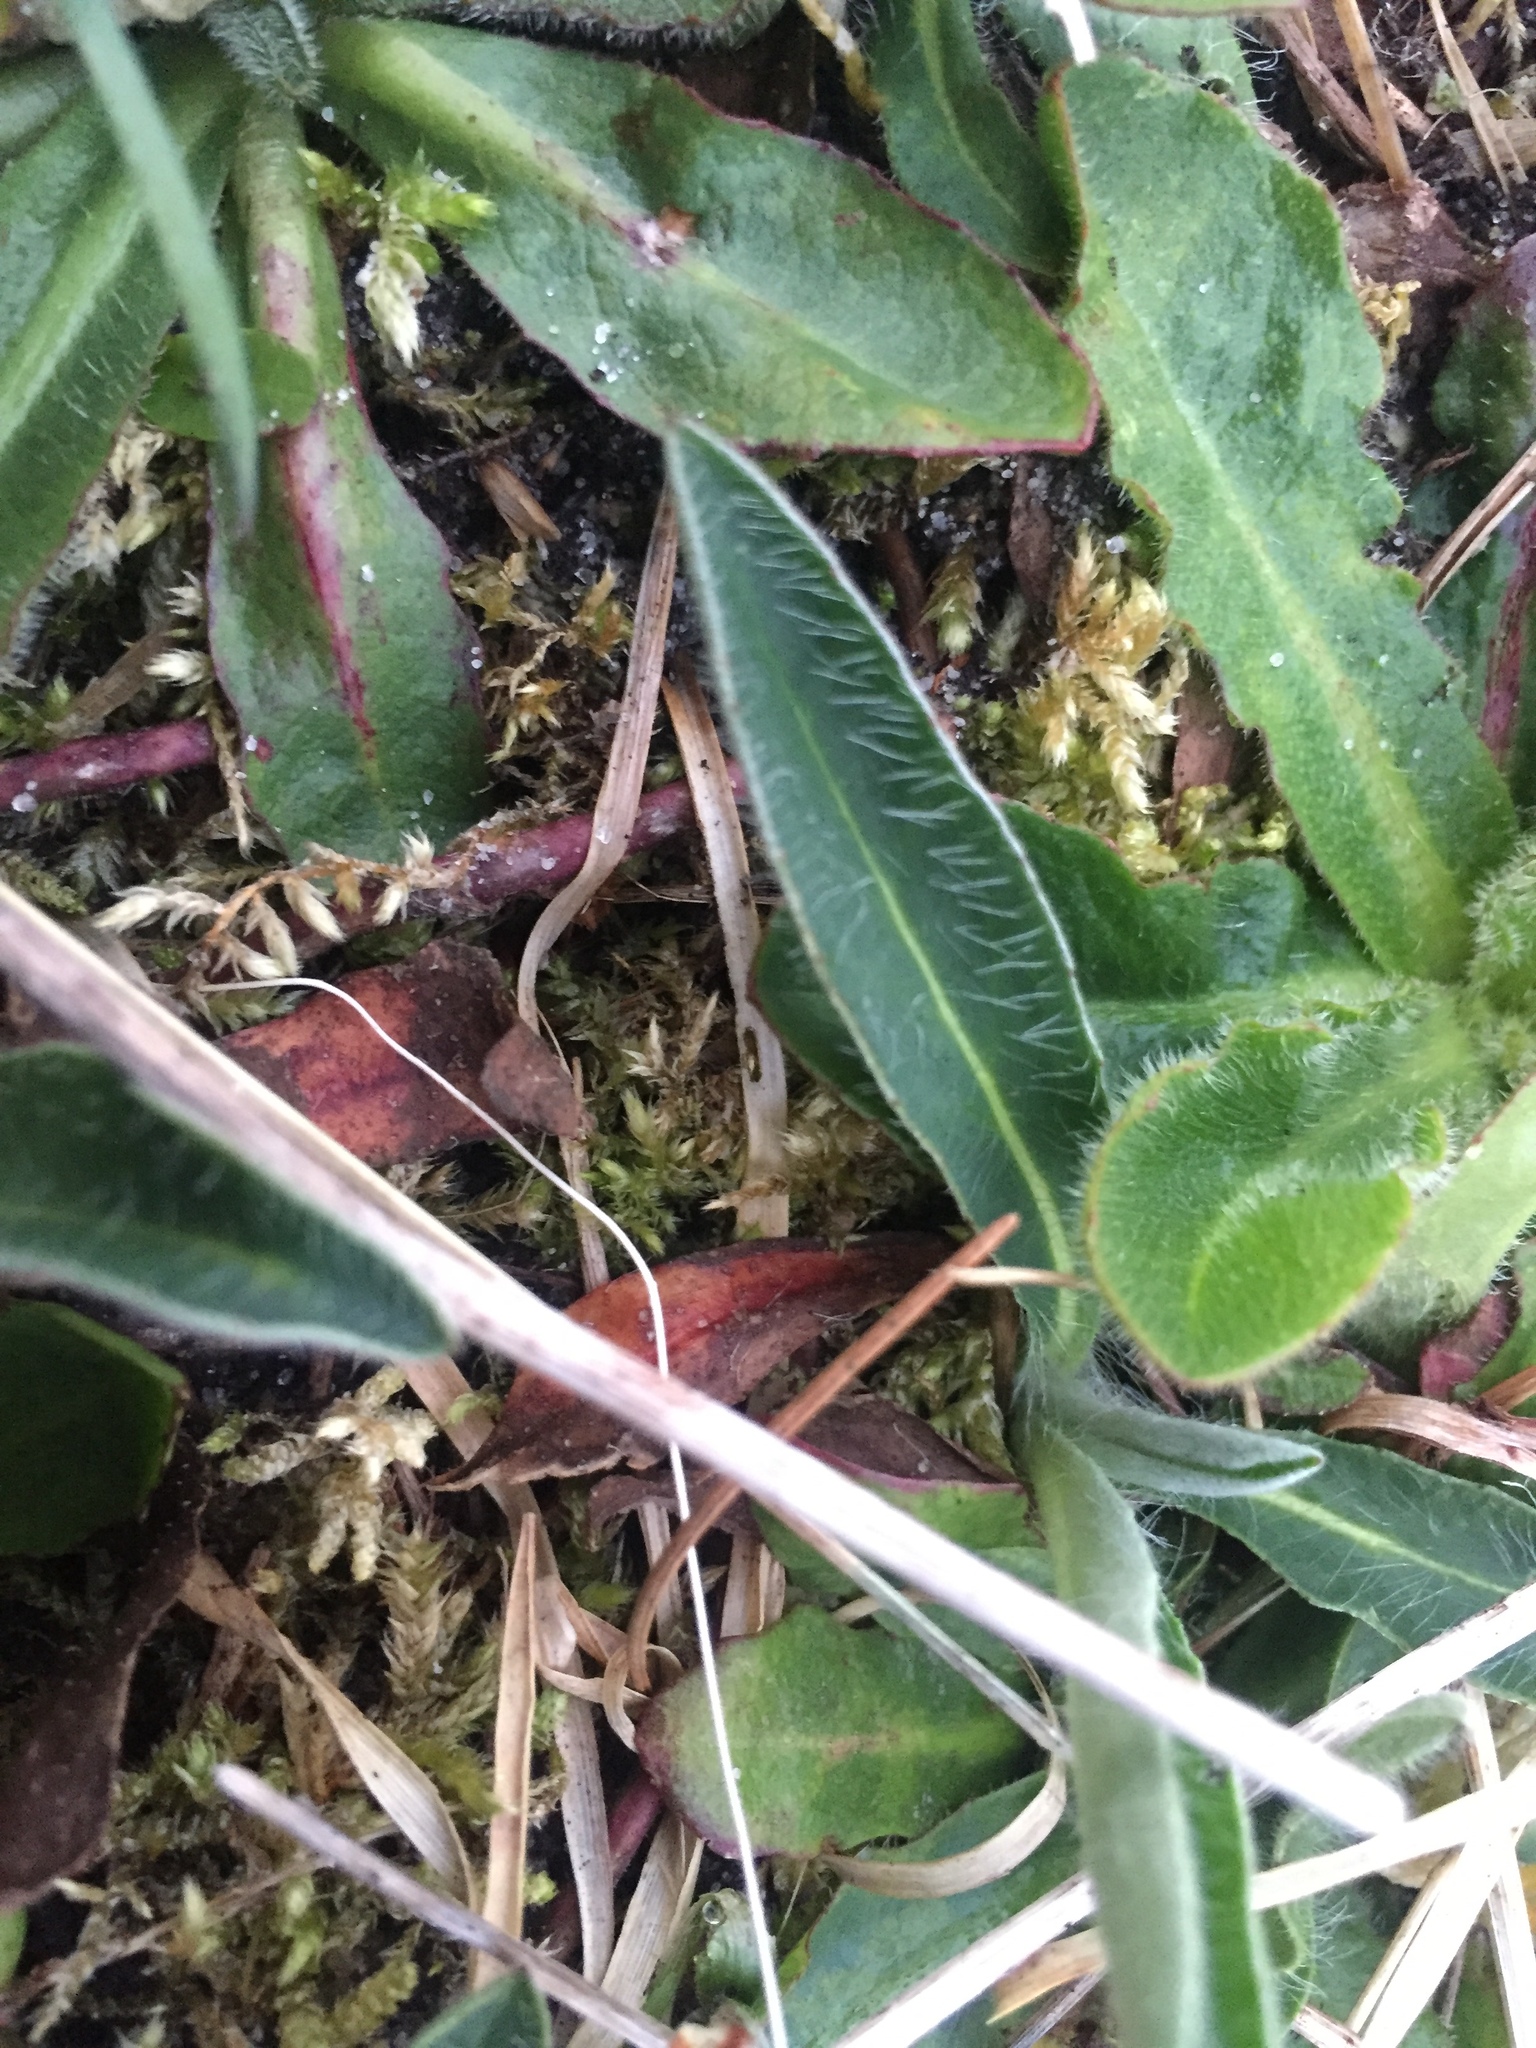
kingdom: Plantae
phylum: Tracheophyta
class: Magnoliopsida
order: Asterales
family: Asteraceae
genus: Pilosella
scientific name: Pilosella officinarum
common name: Mouse-ear hawkweed
